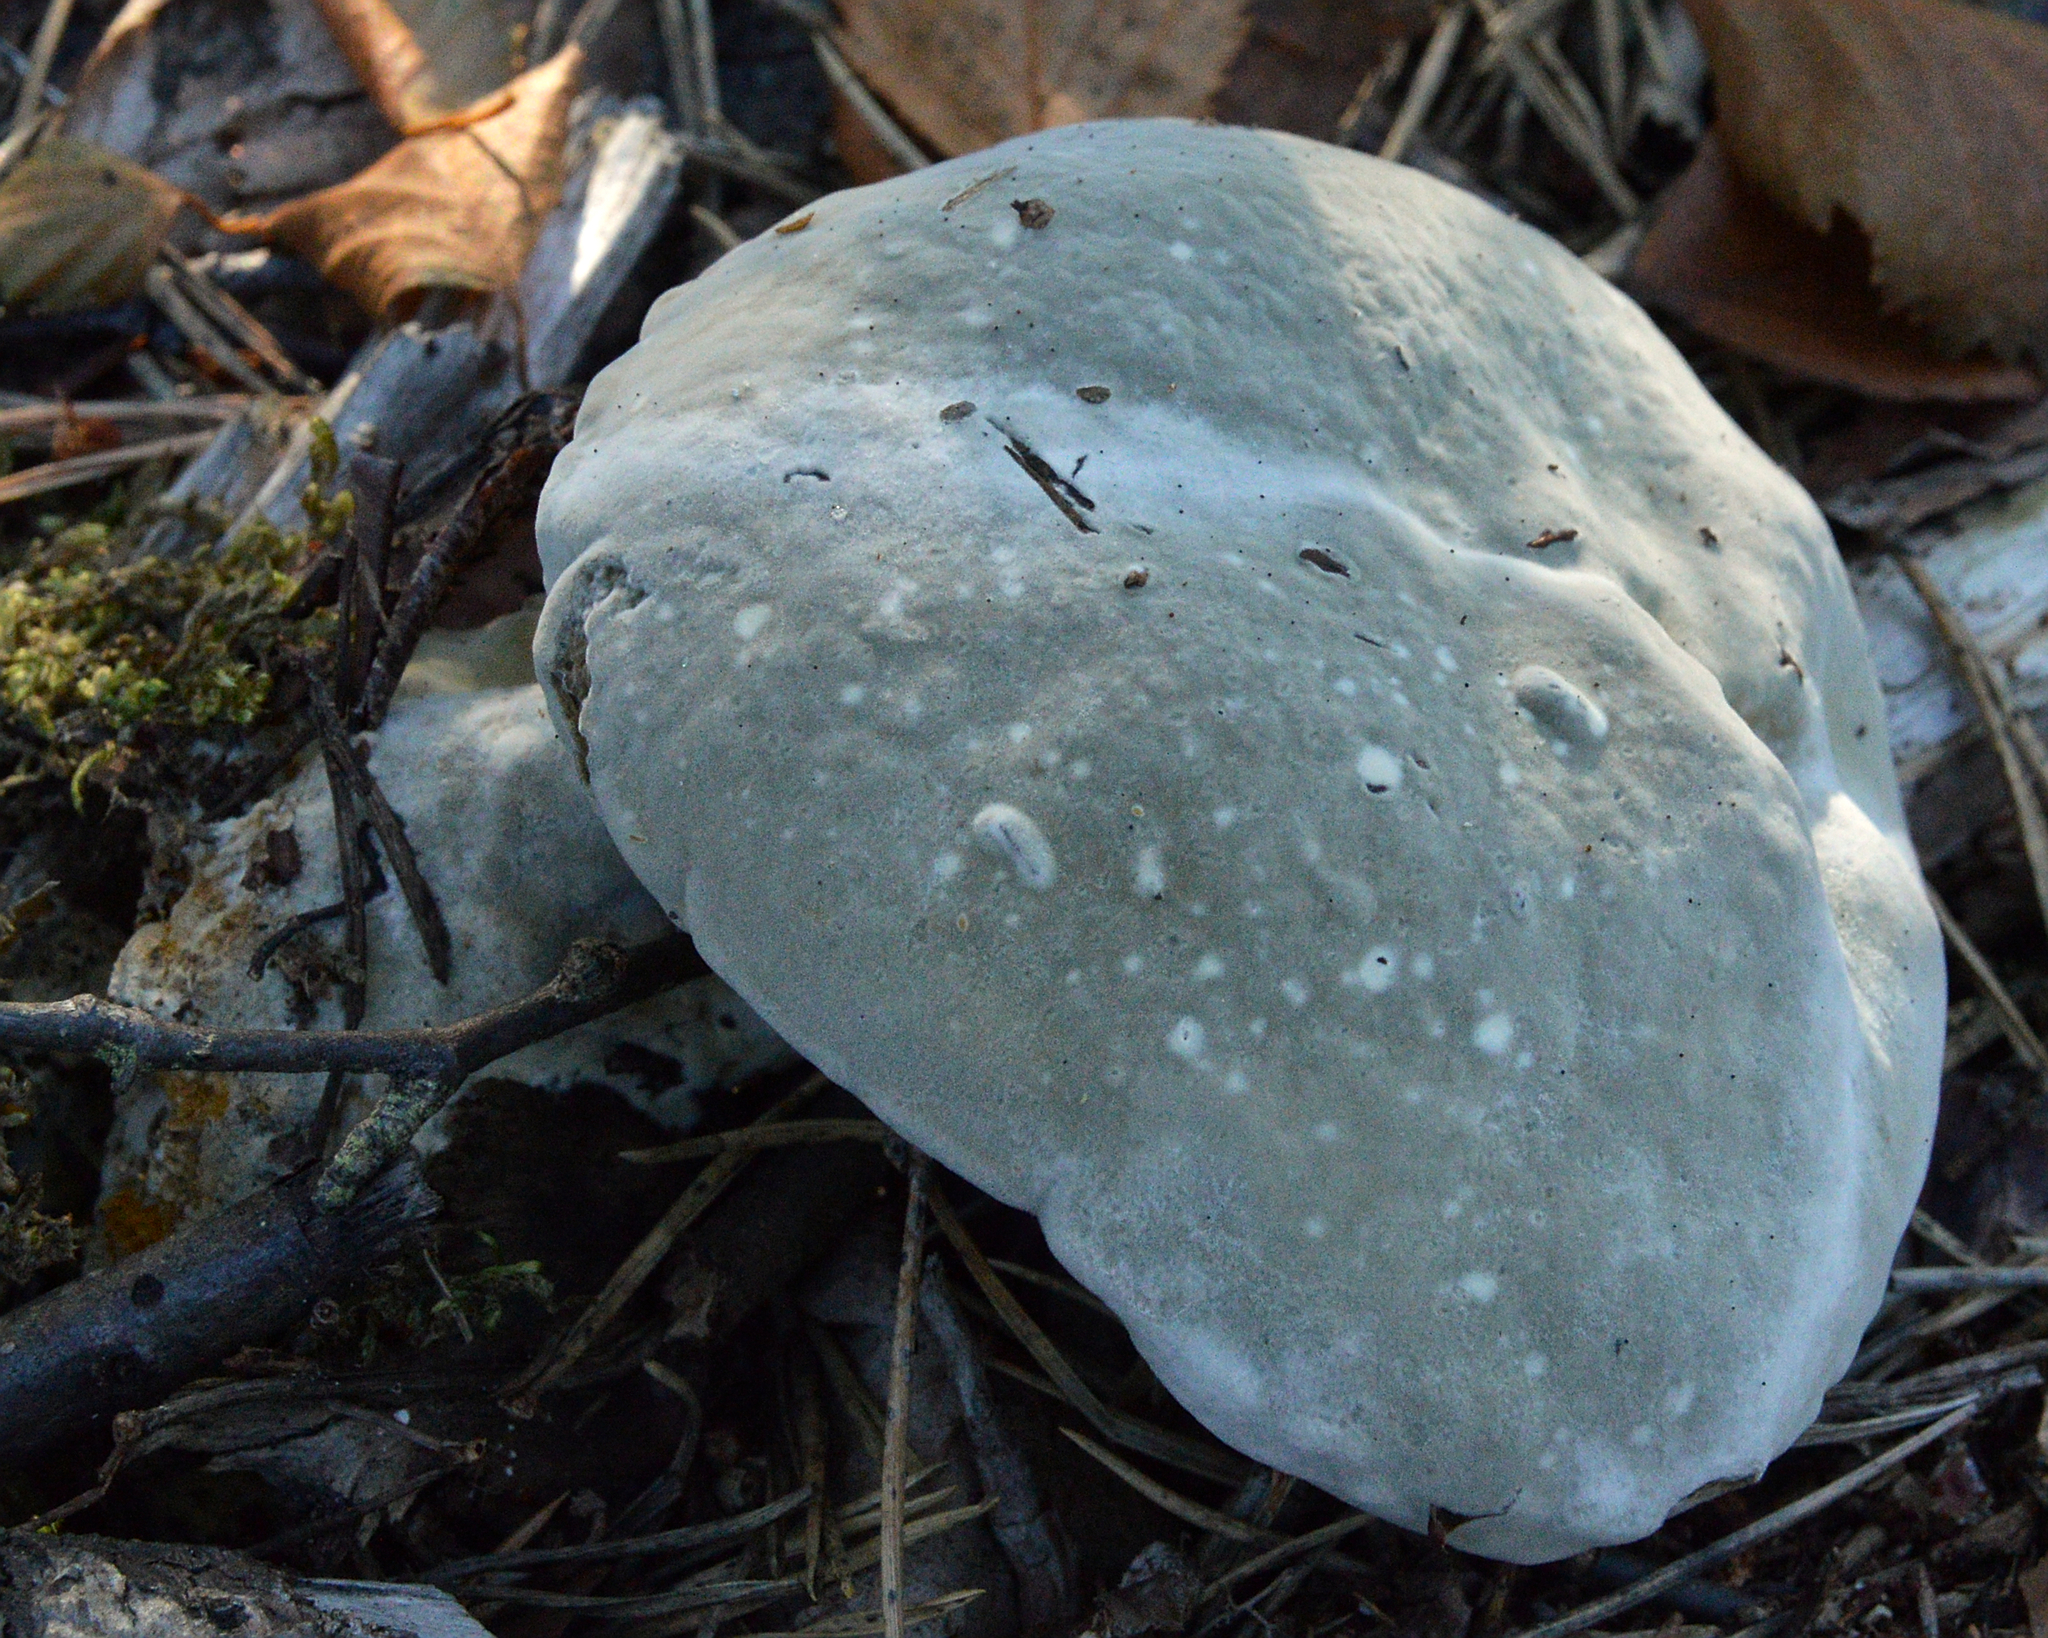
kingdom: Fungi
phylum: Ascomycota
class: Sordariomycetes
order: Hypocreales
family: Hypocreaceae
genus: Hypomyces
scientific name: Hypomyces chrysospermus
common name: Bolete mould
